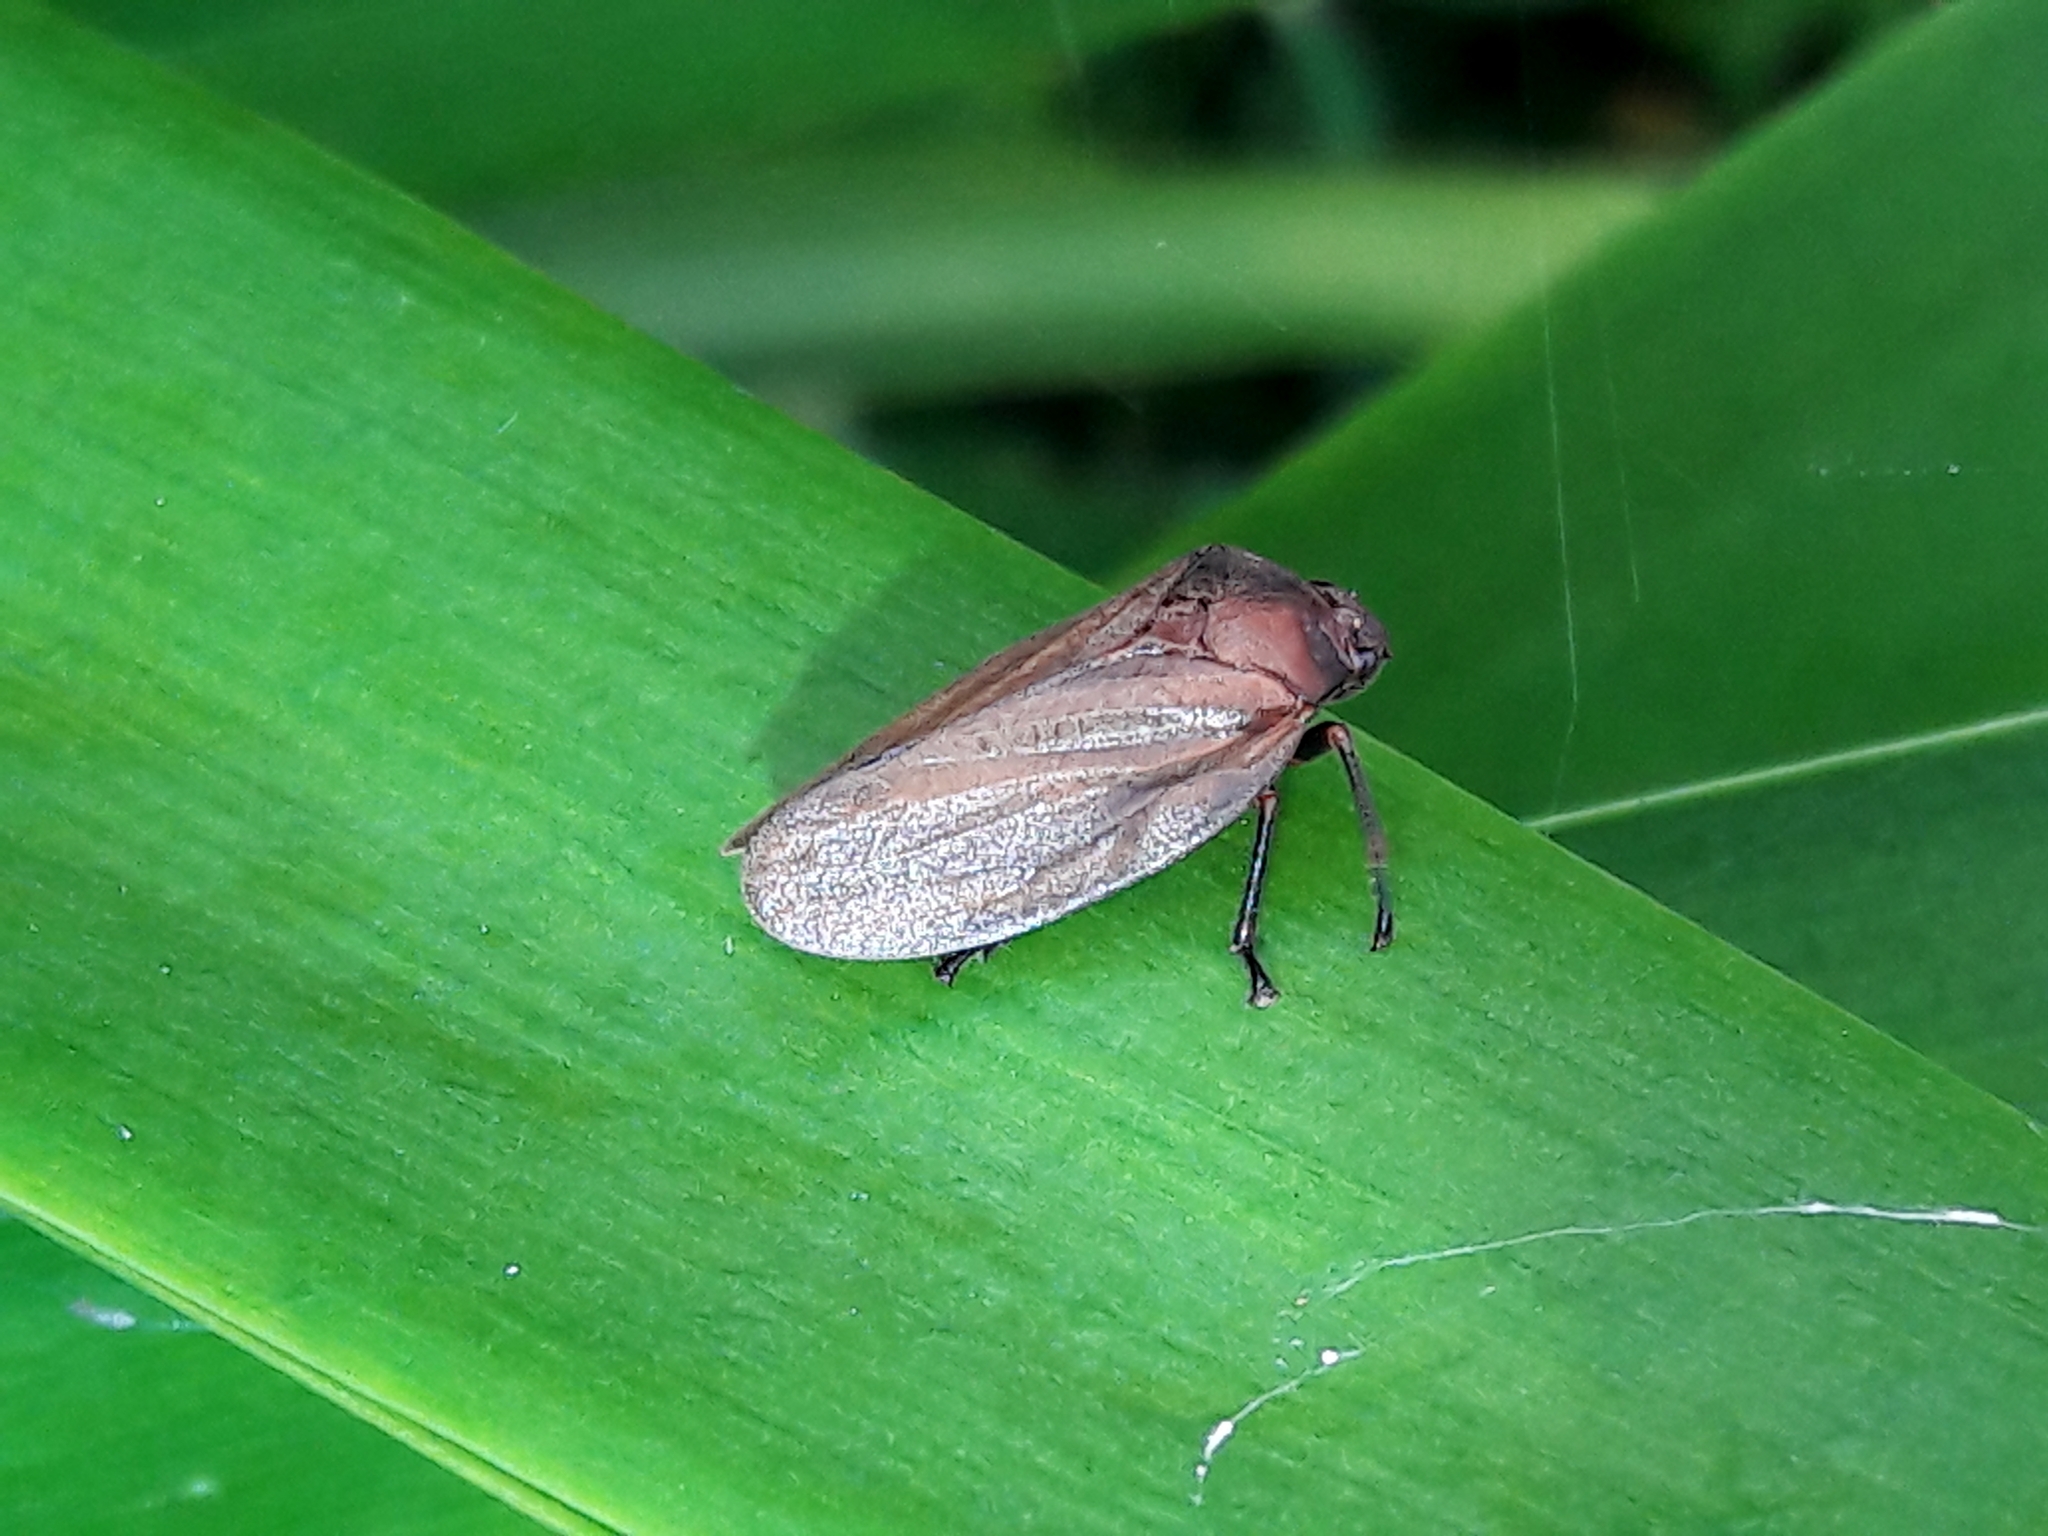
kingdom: Animalia
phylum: Arthropoda
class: Insecta
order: Hemiptera
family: Cercopidae
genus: Mahanarva
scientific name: Mahanarva liturata
